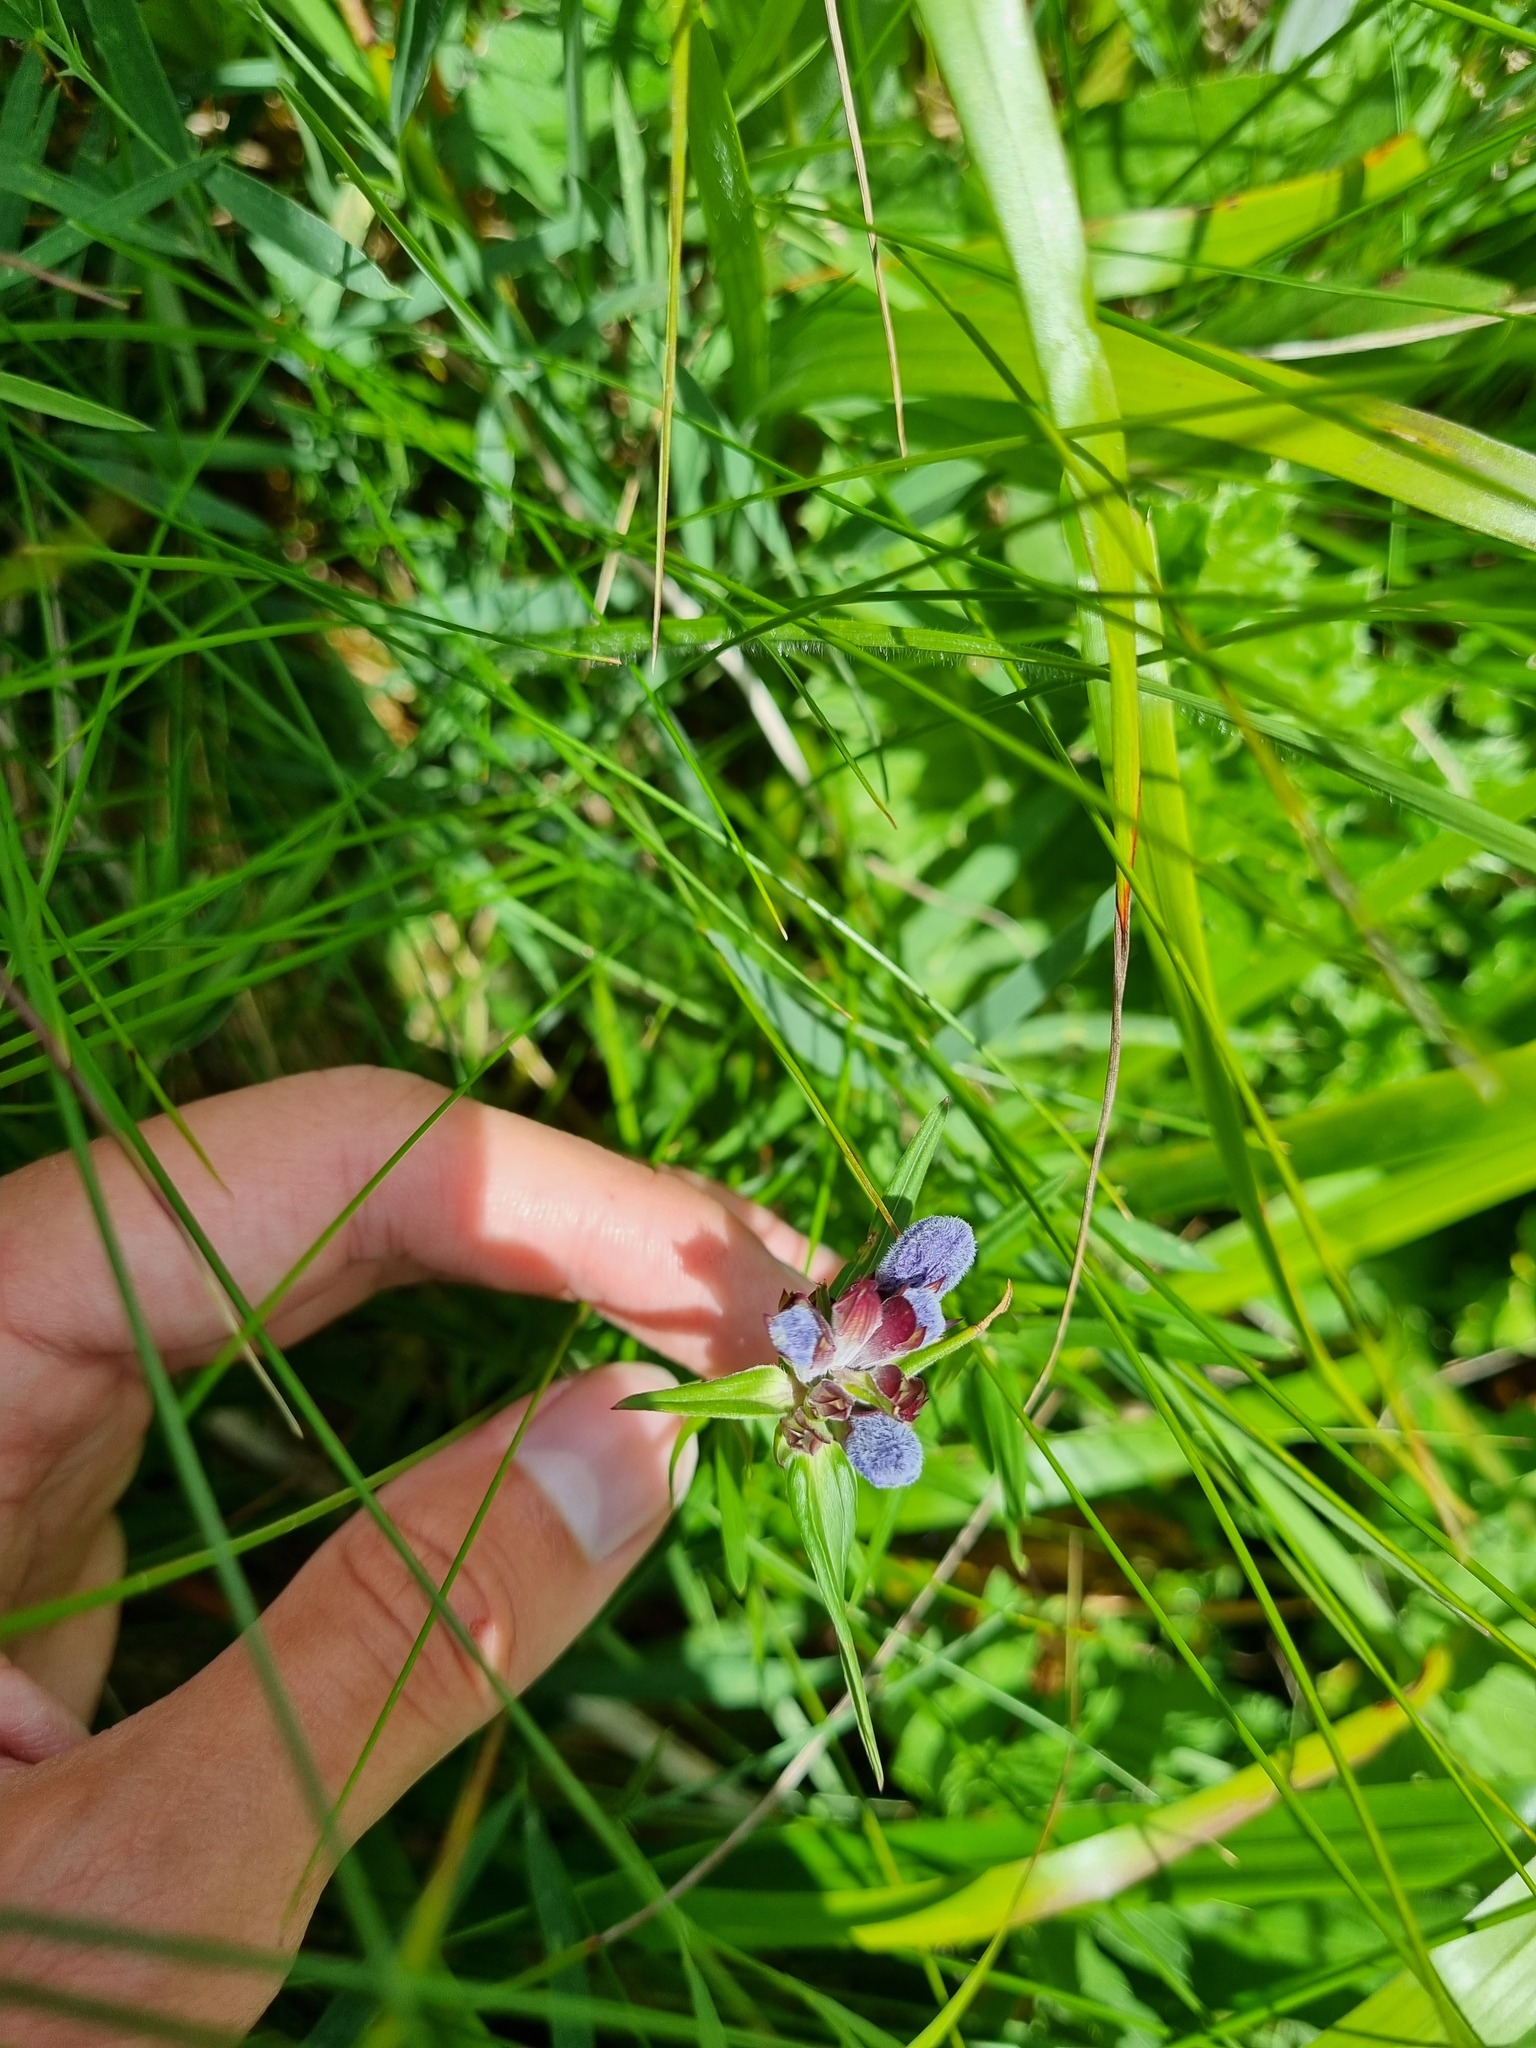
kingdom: Plantae
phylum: Tracheophyta
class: Magnoliopsida
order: Lamiales
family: Lamiaceae
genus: Dracocephalum
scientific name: Dracocephalum ruyschiana
